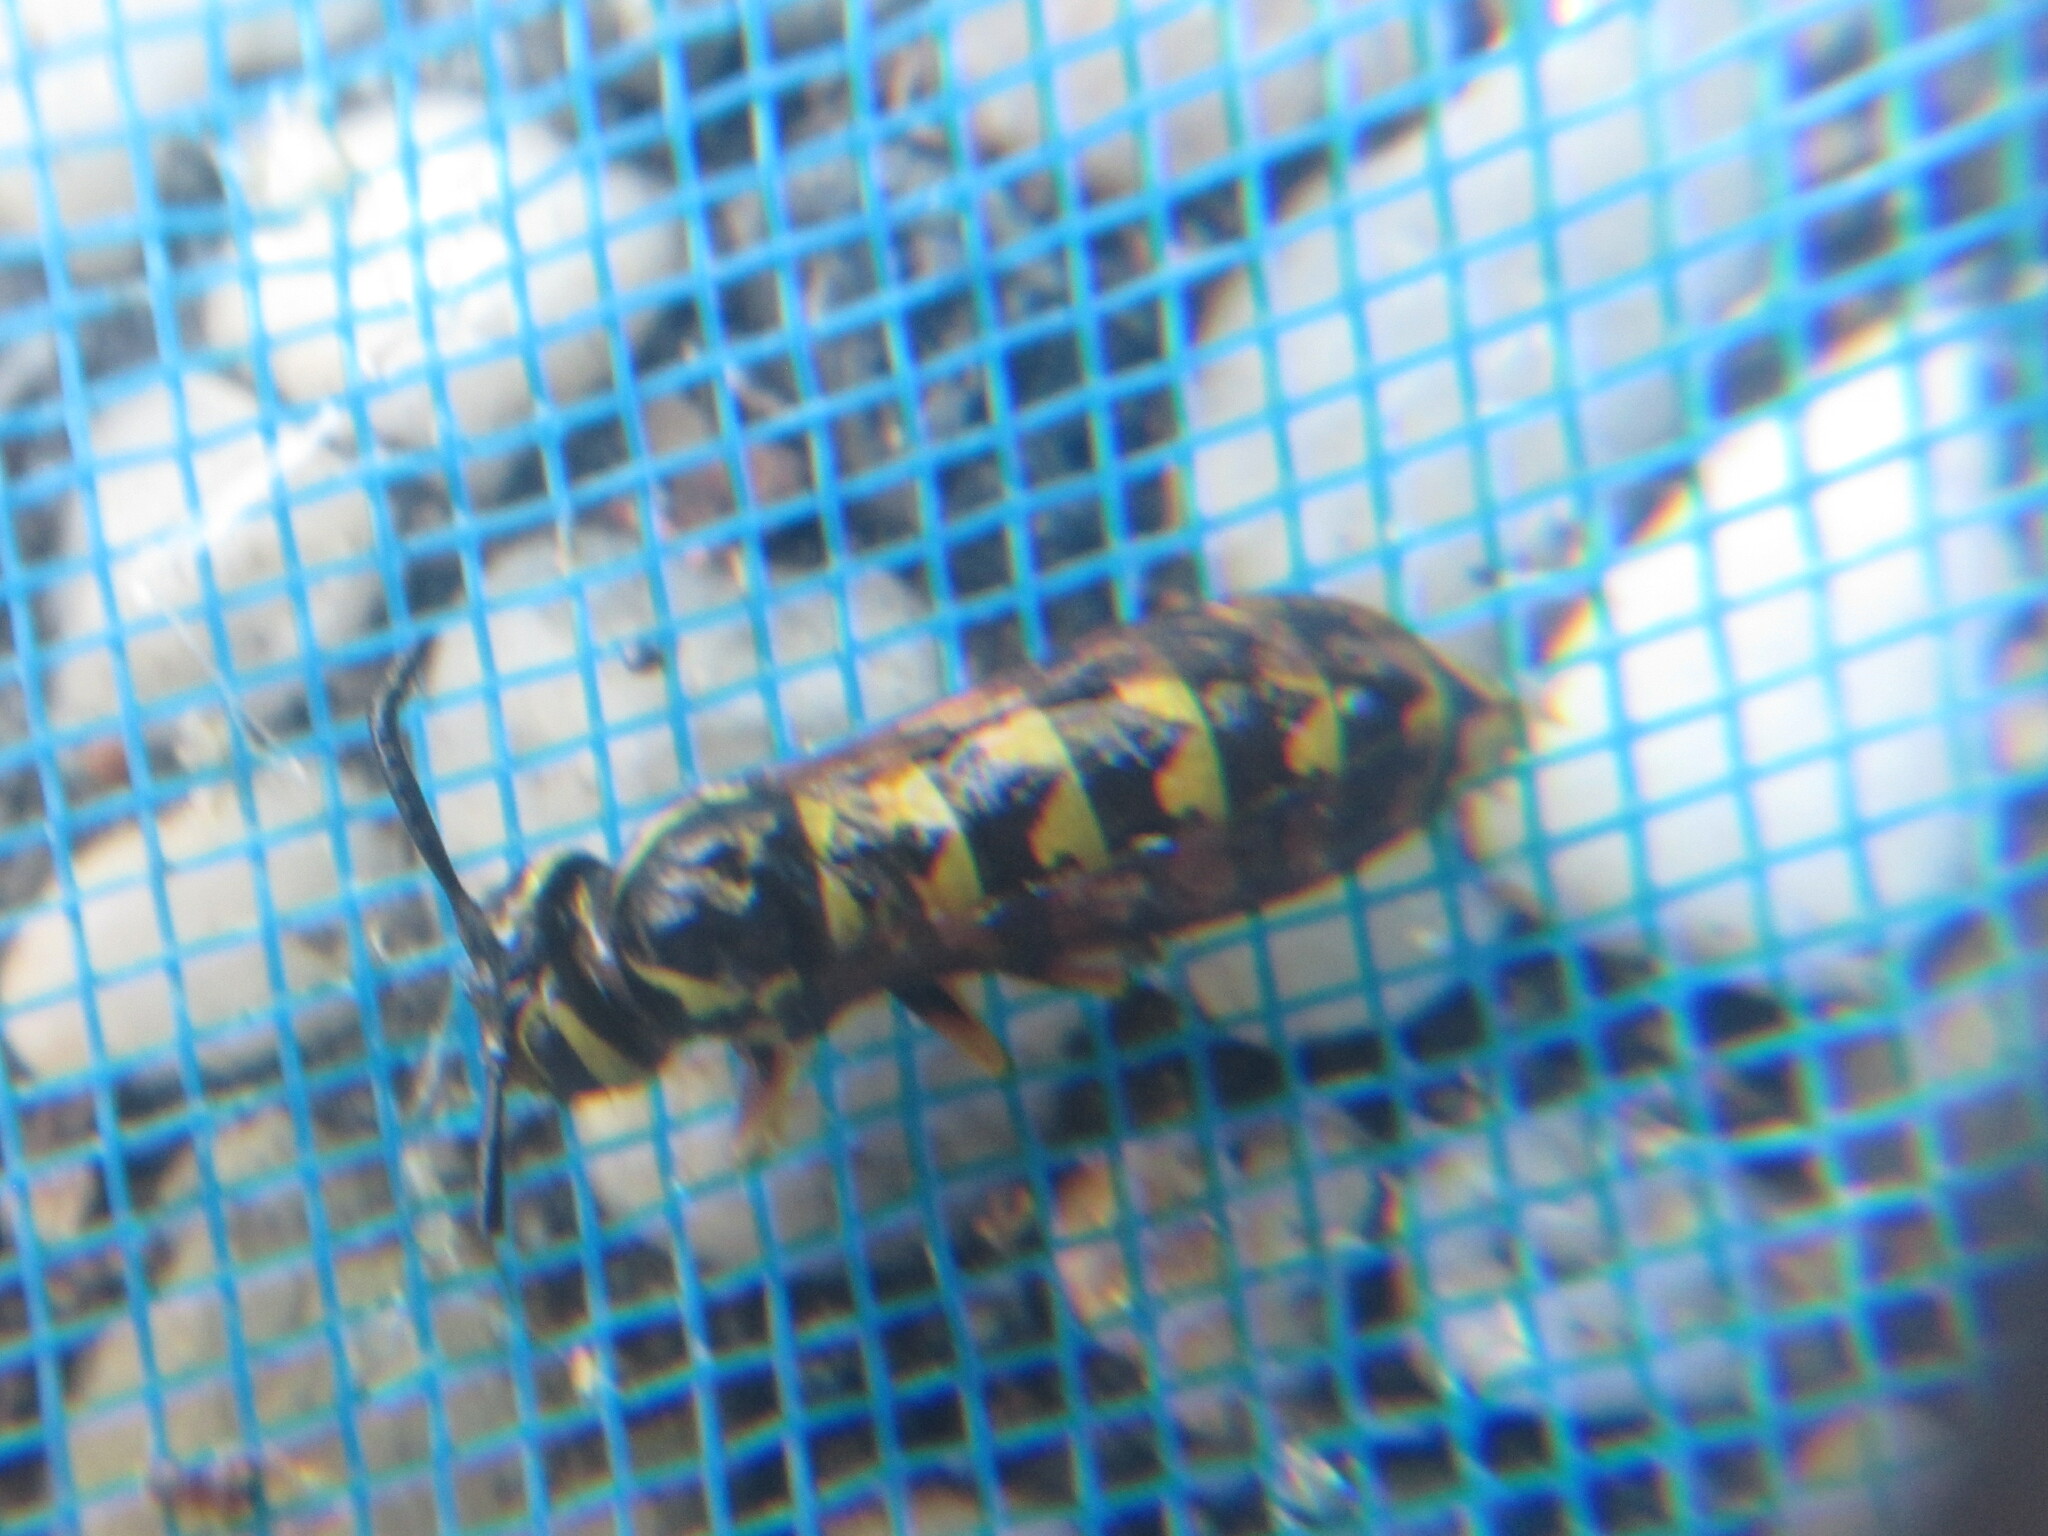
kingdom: Animalia
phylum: Arthropoda
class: Insecta
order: Hymenoptera
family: Vespidae
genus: Vespula
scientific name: Vespula pensylvanica
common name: Western yellowjacket
